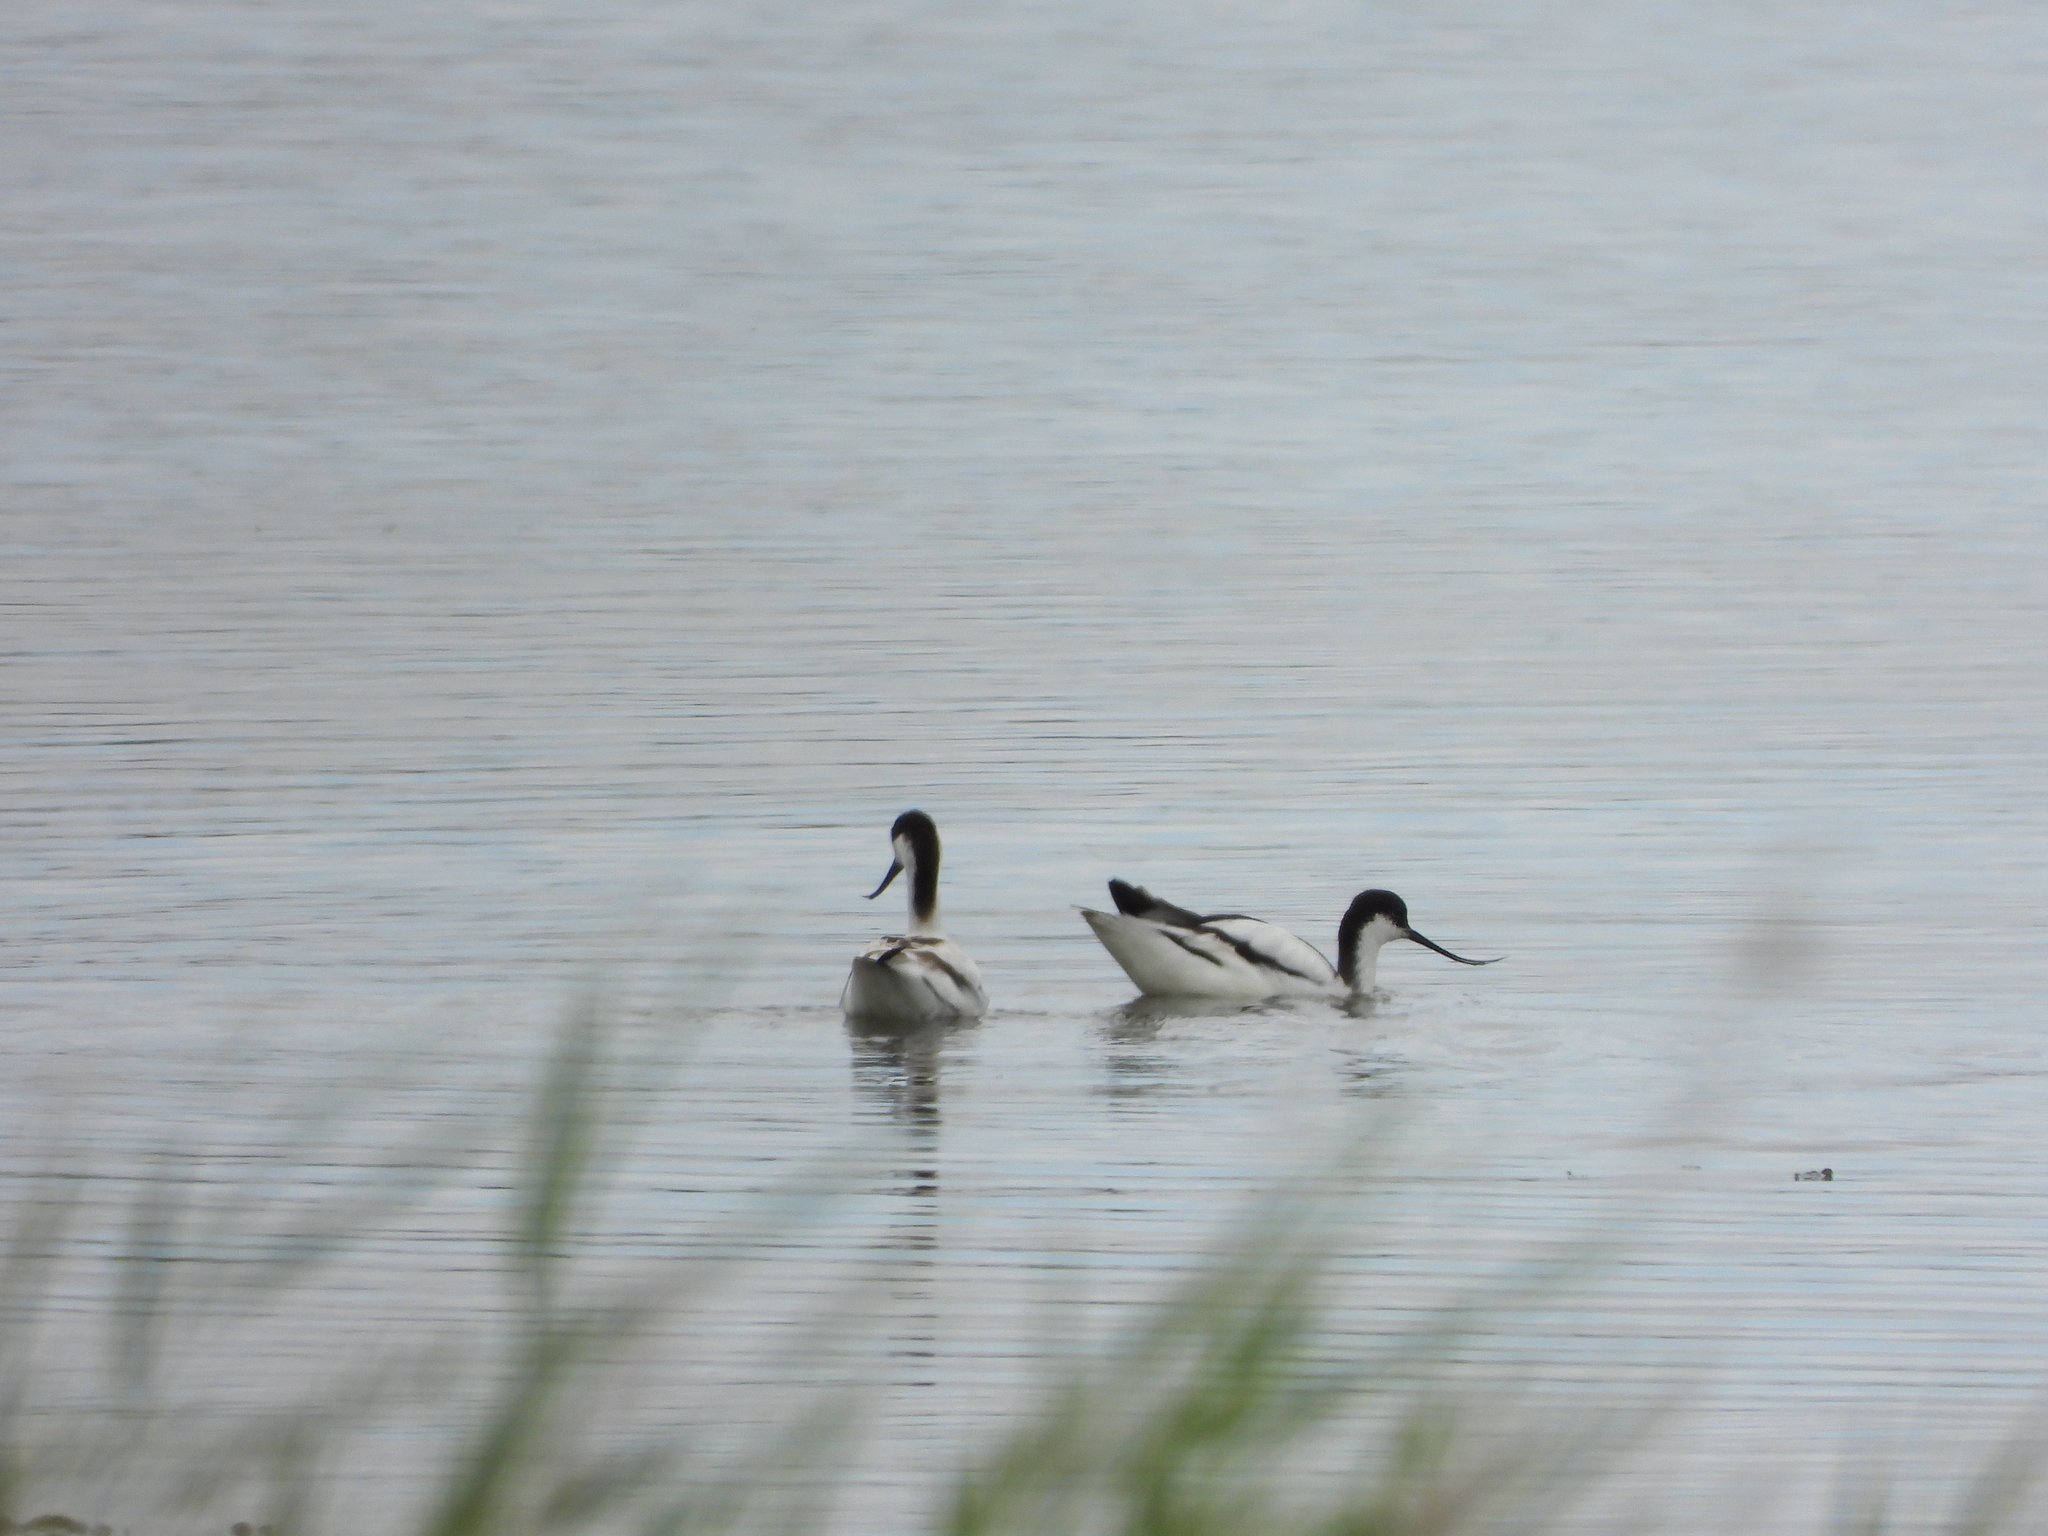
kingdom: Animalia
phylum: Chordata
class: Aves
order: Charadriiformes
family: Recurvirostridae
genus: Recurvirostra
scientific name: Recurvirostra avosetta
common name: Pied avocet
